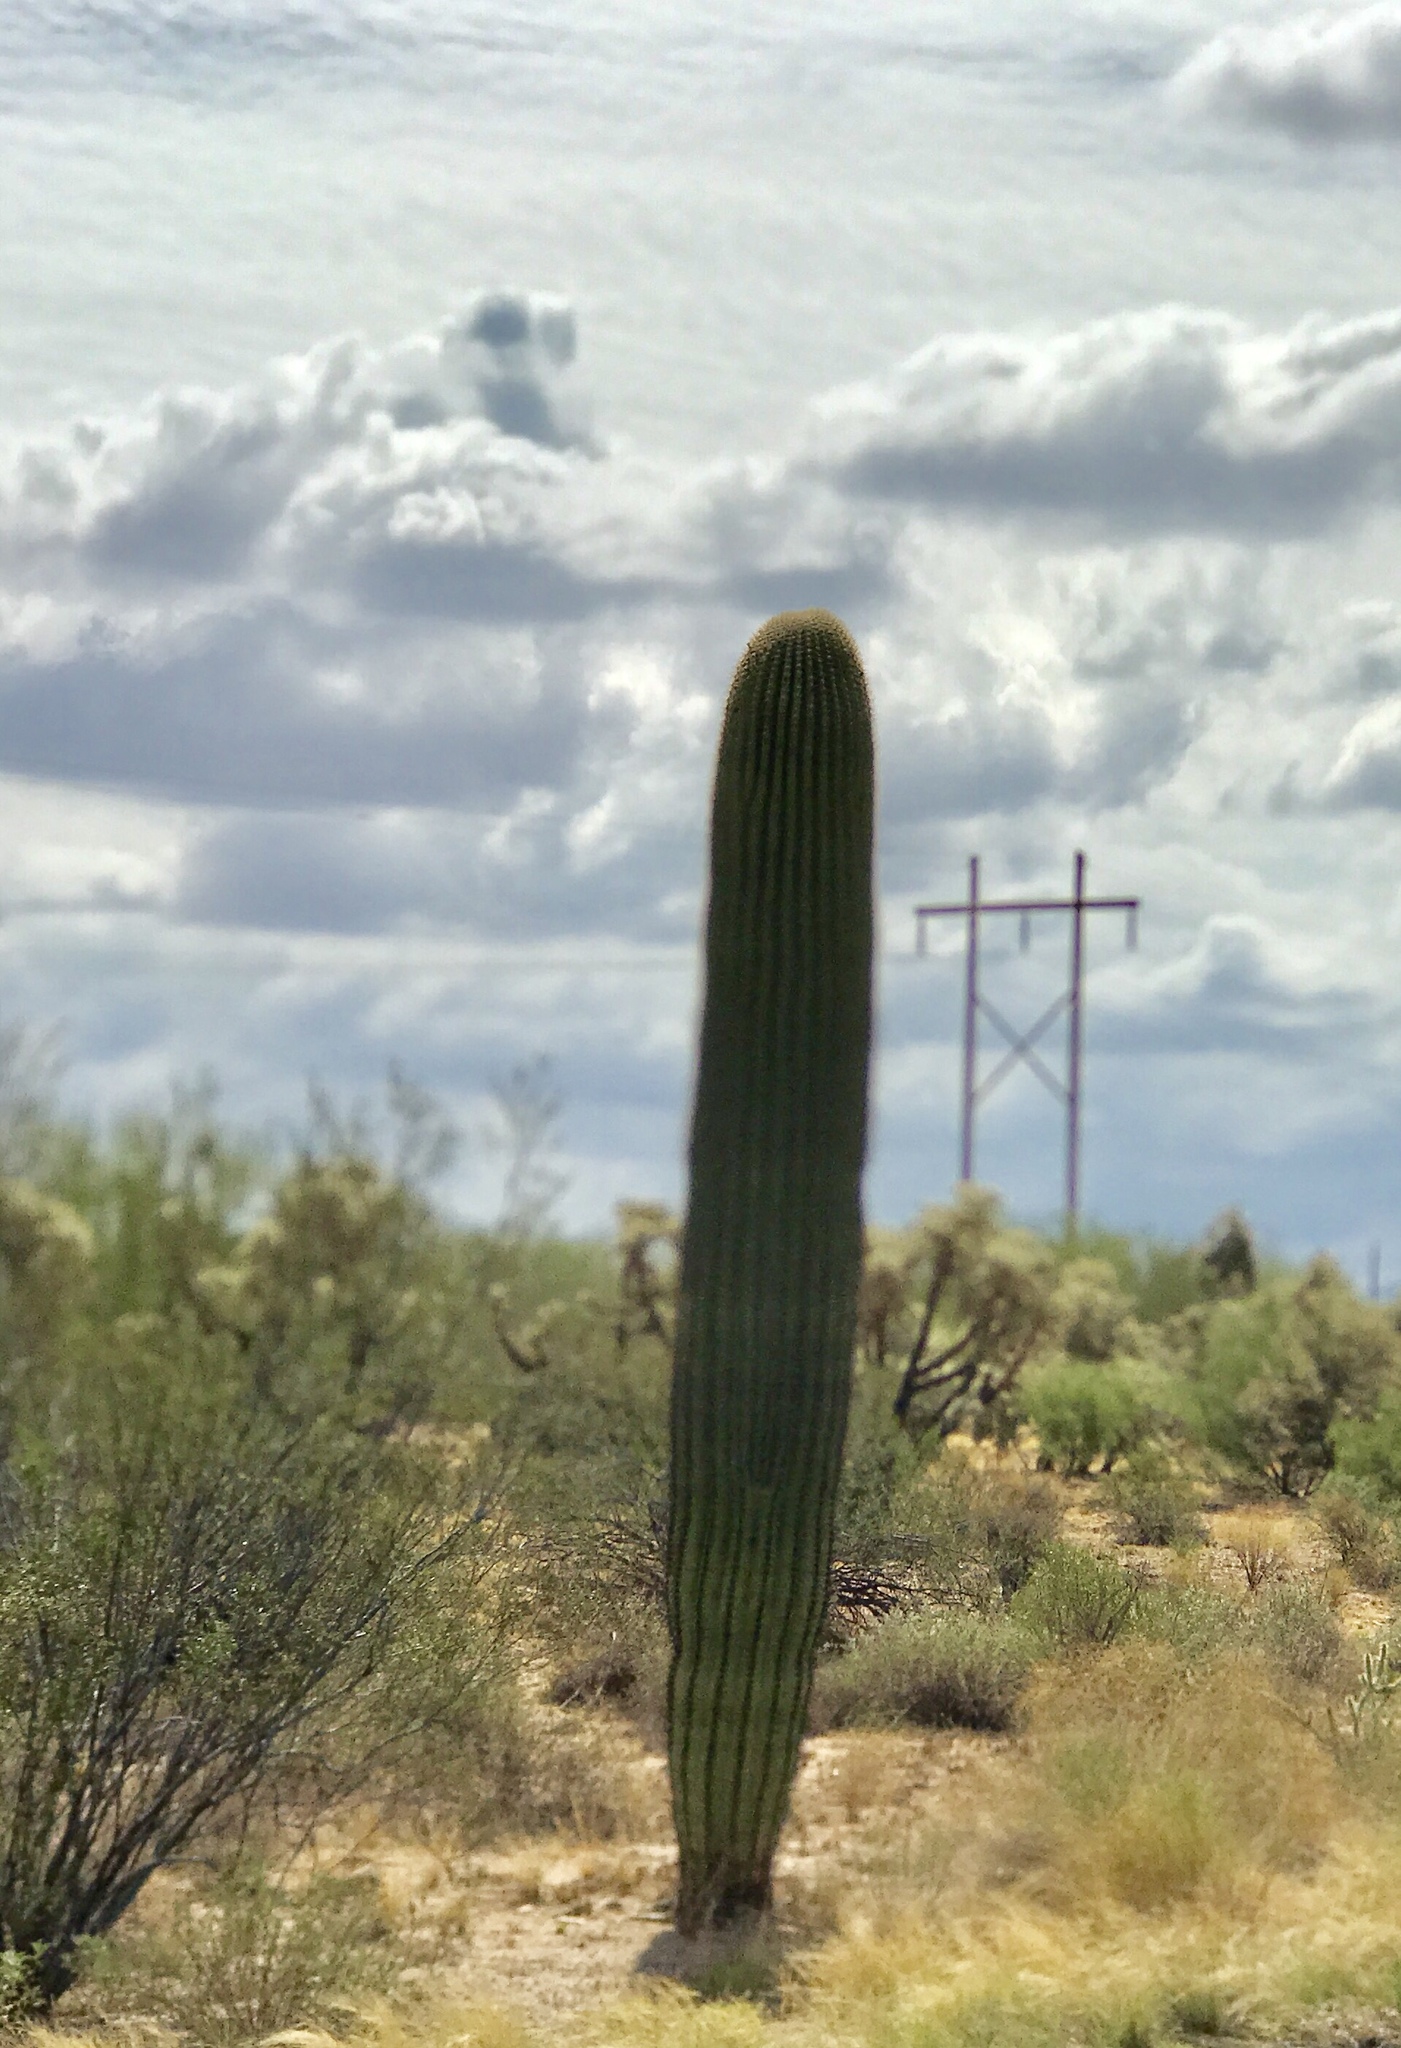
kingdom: Plantae
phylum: Tracheophyta
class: Magnoliopsida
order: Caryophyllales
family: Cactaceae
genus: Carnegiea
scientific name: Carnegiea gigantea
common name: Saguaro
